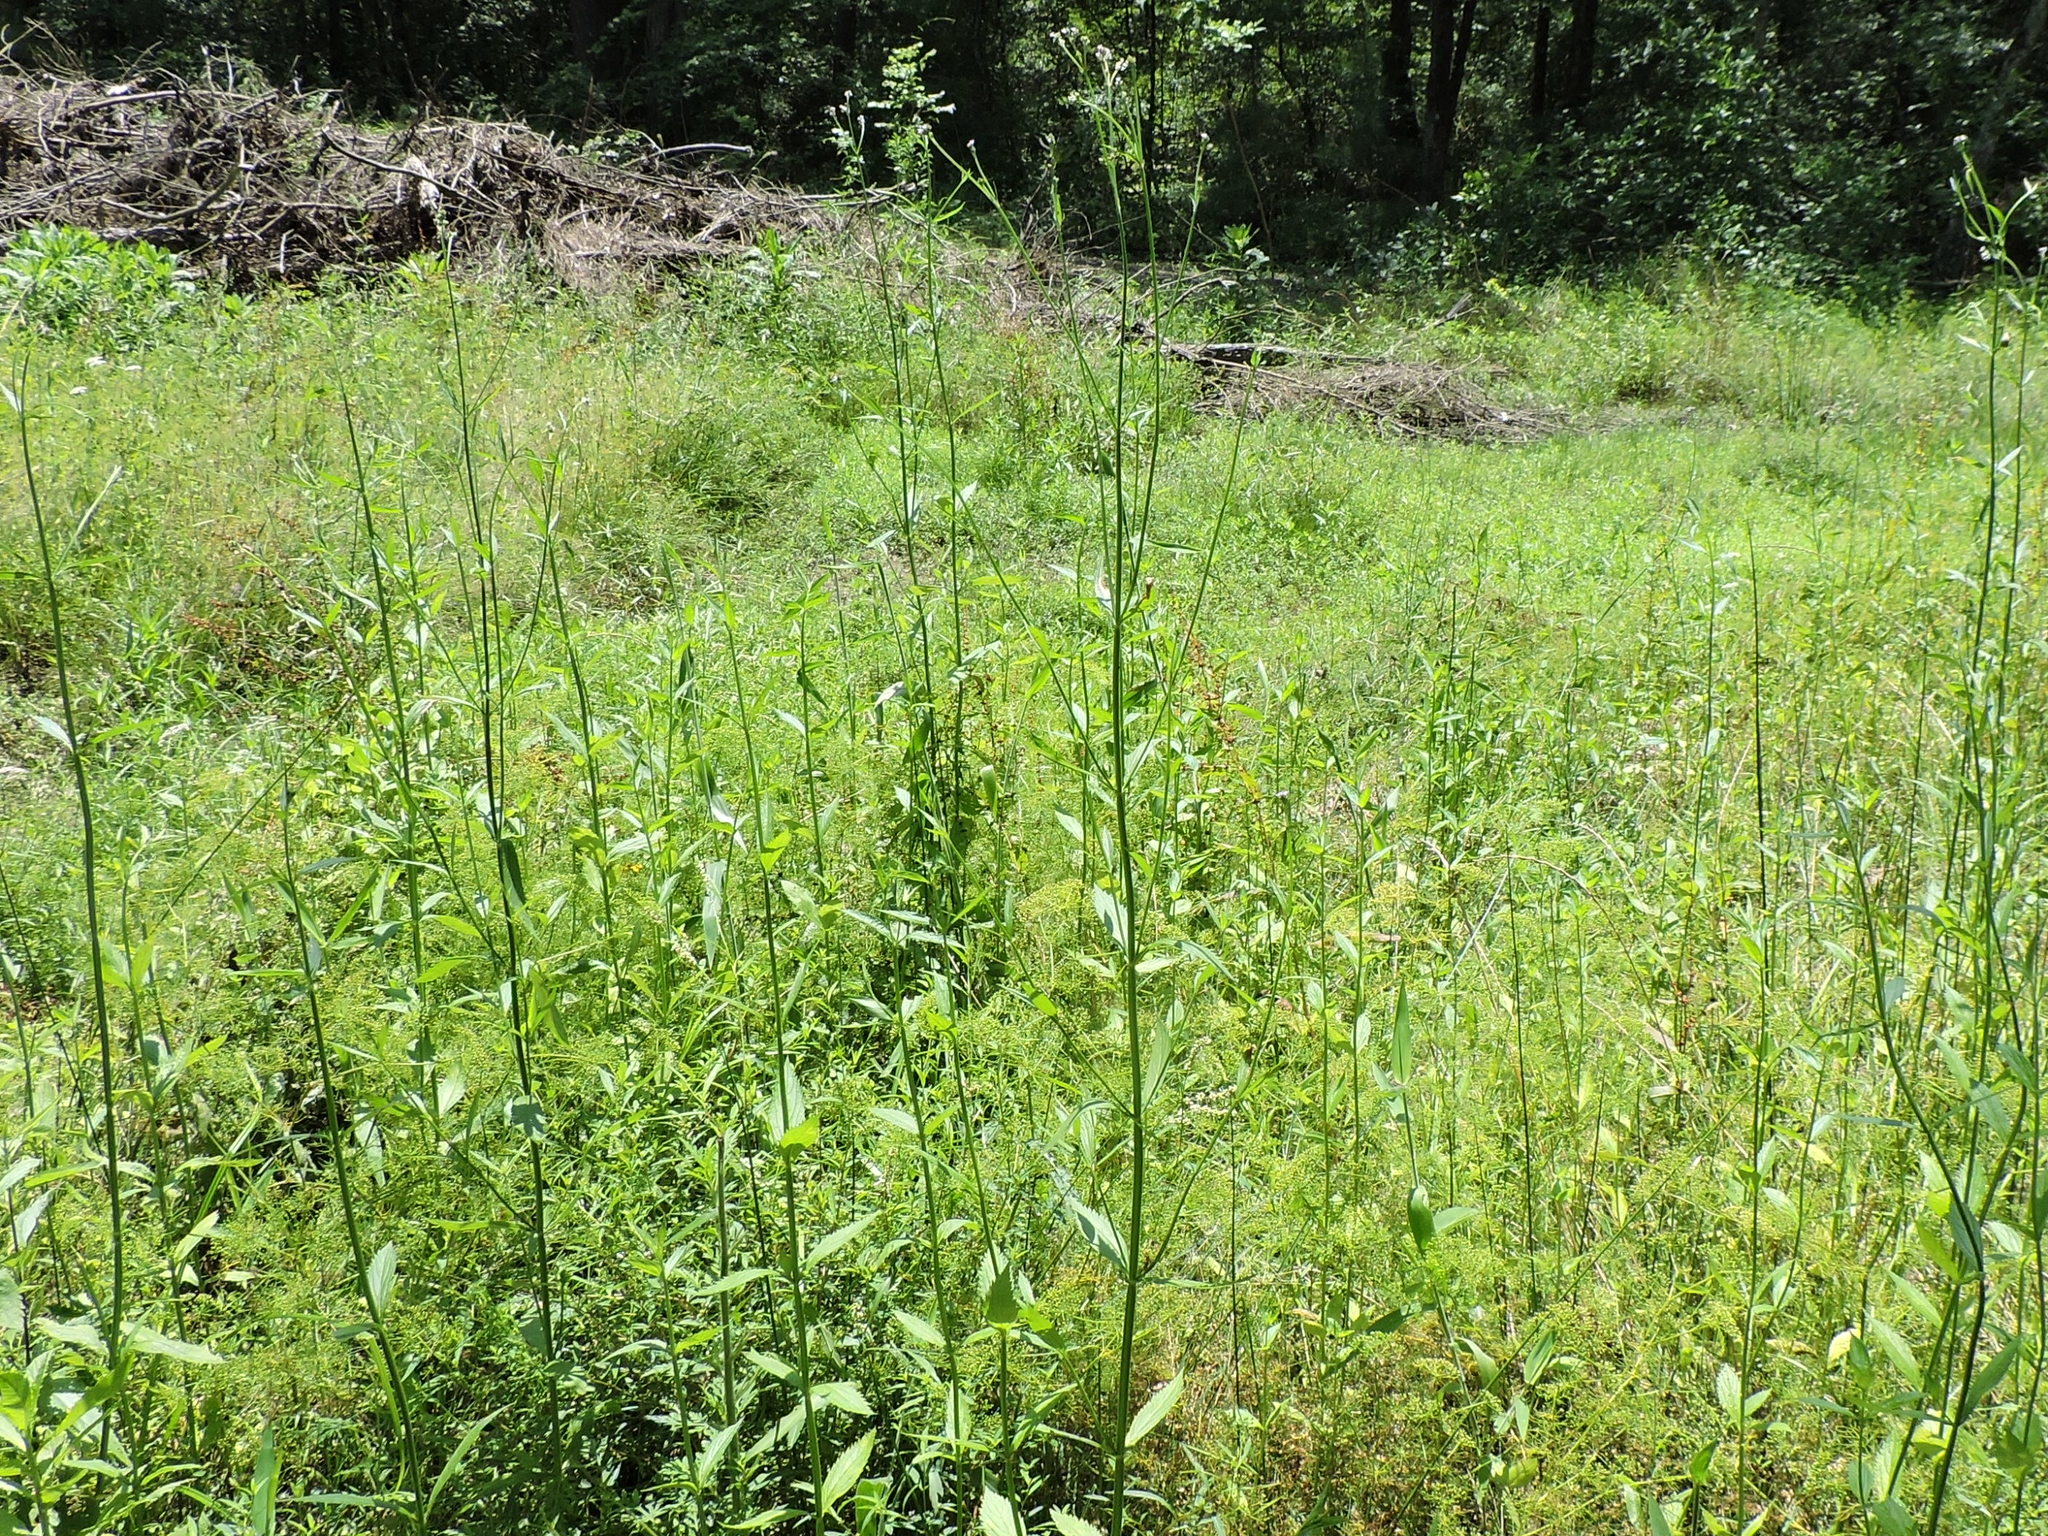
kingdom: Plantae
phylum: Tracheophyta
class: Magnoliopsida
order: Lamiales
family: Verbenaceae
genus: Verbena
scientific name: Verbena brasiliensis
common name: Brazilian vervain
